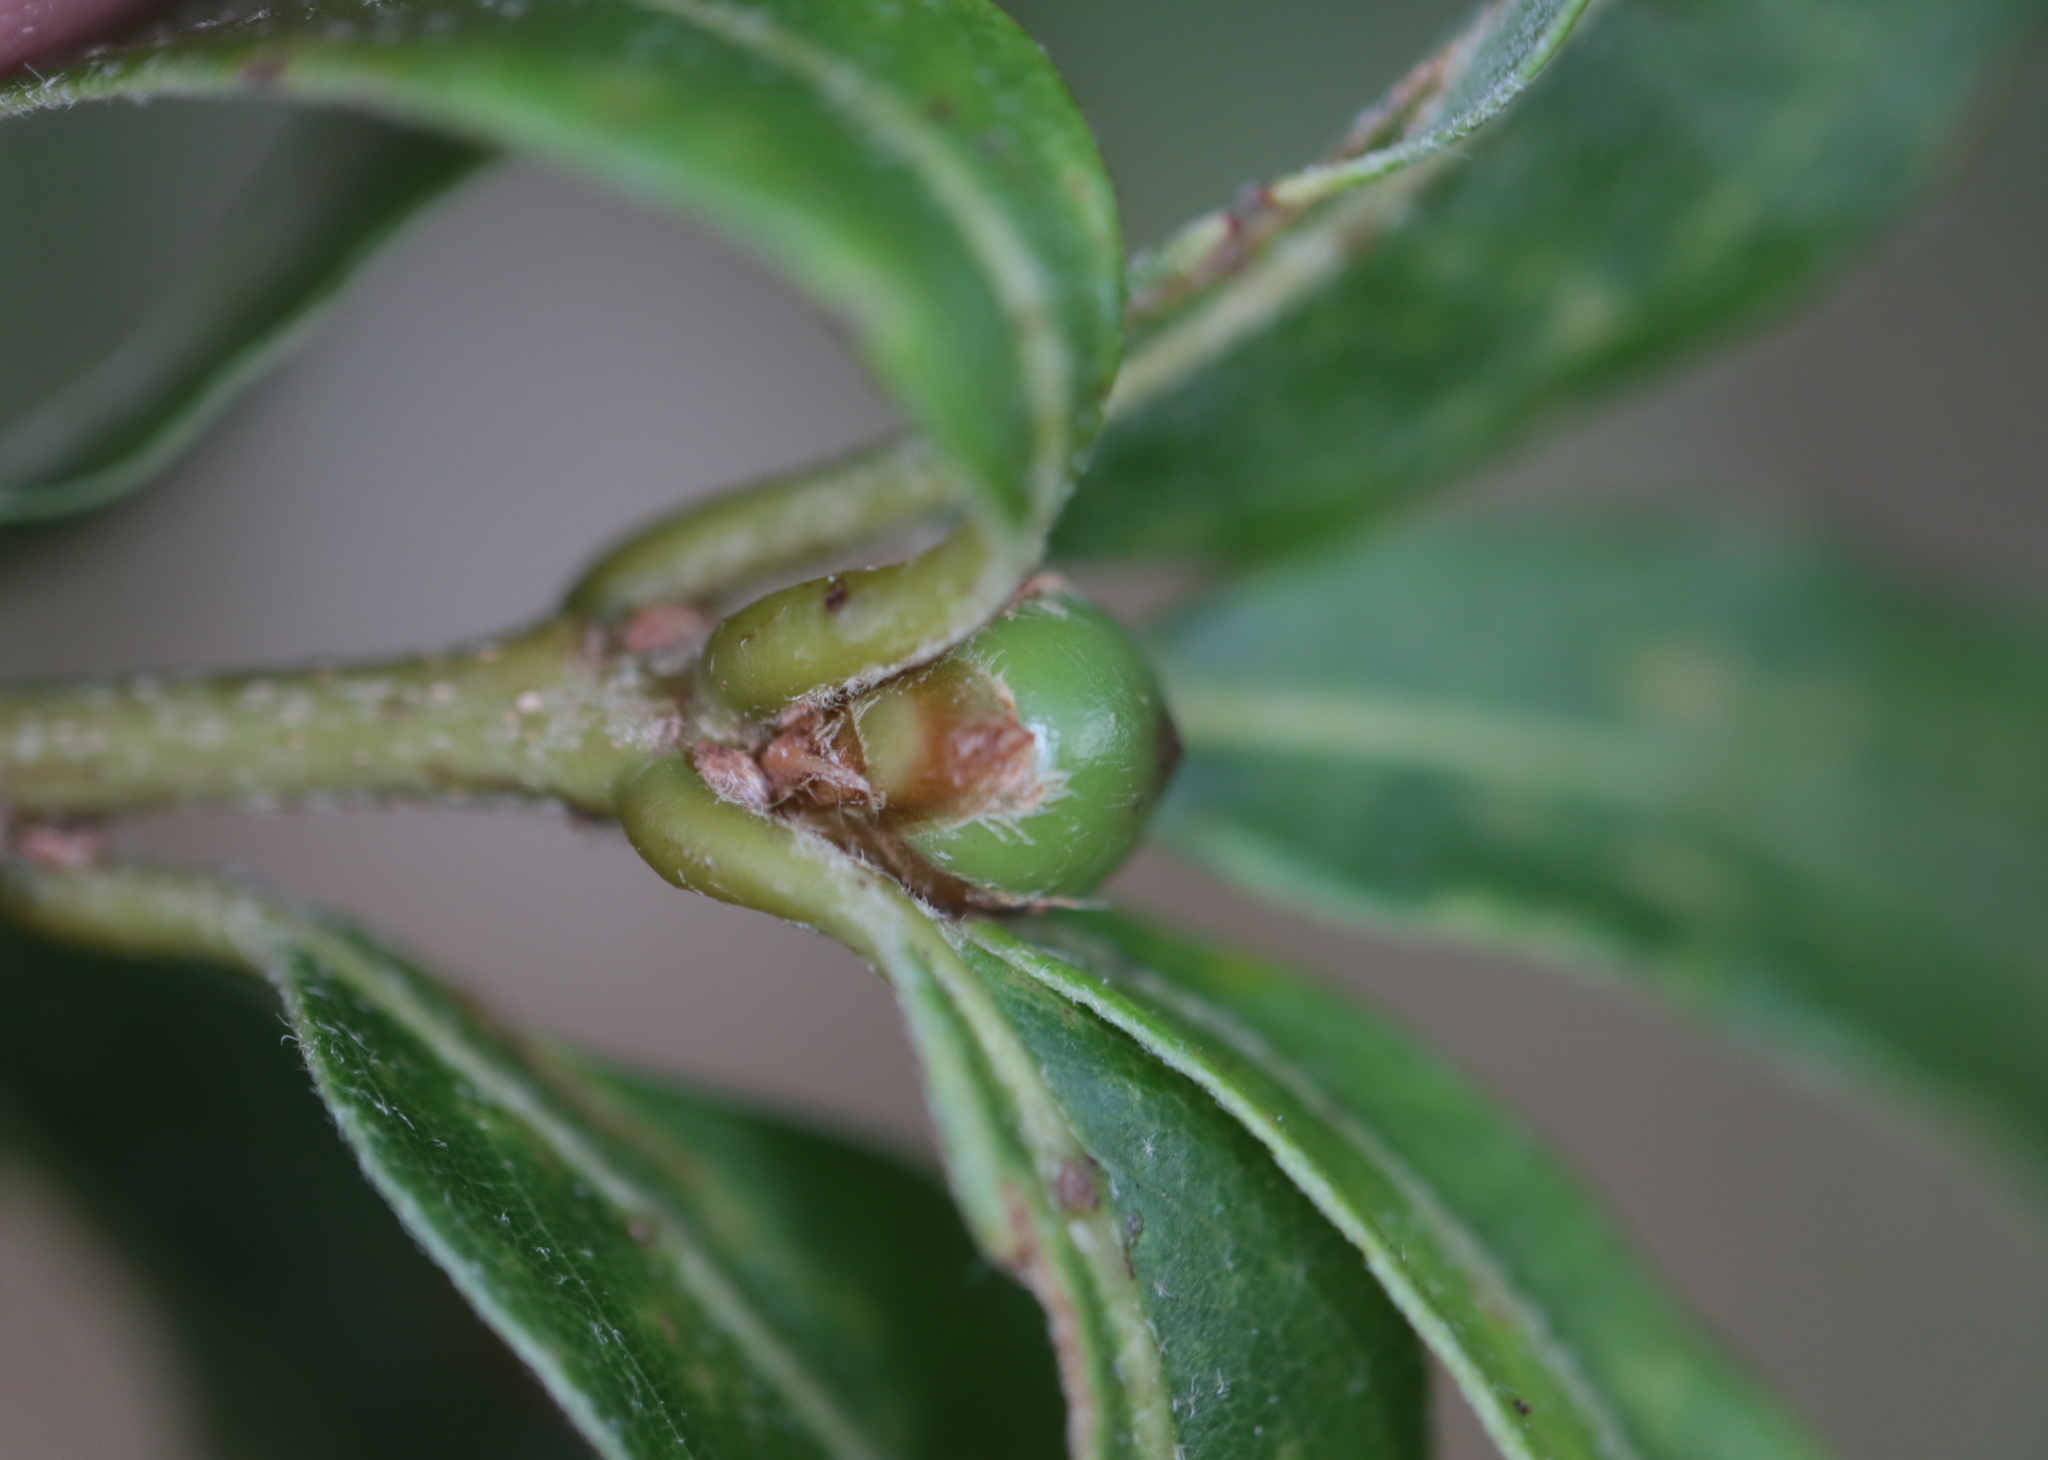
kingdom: Animalia
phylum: Arthropoda
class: Insecta
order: Hymenoptera
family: Cynipidae
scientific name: Cynipidae
